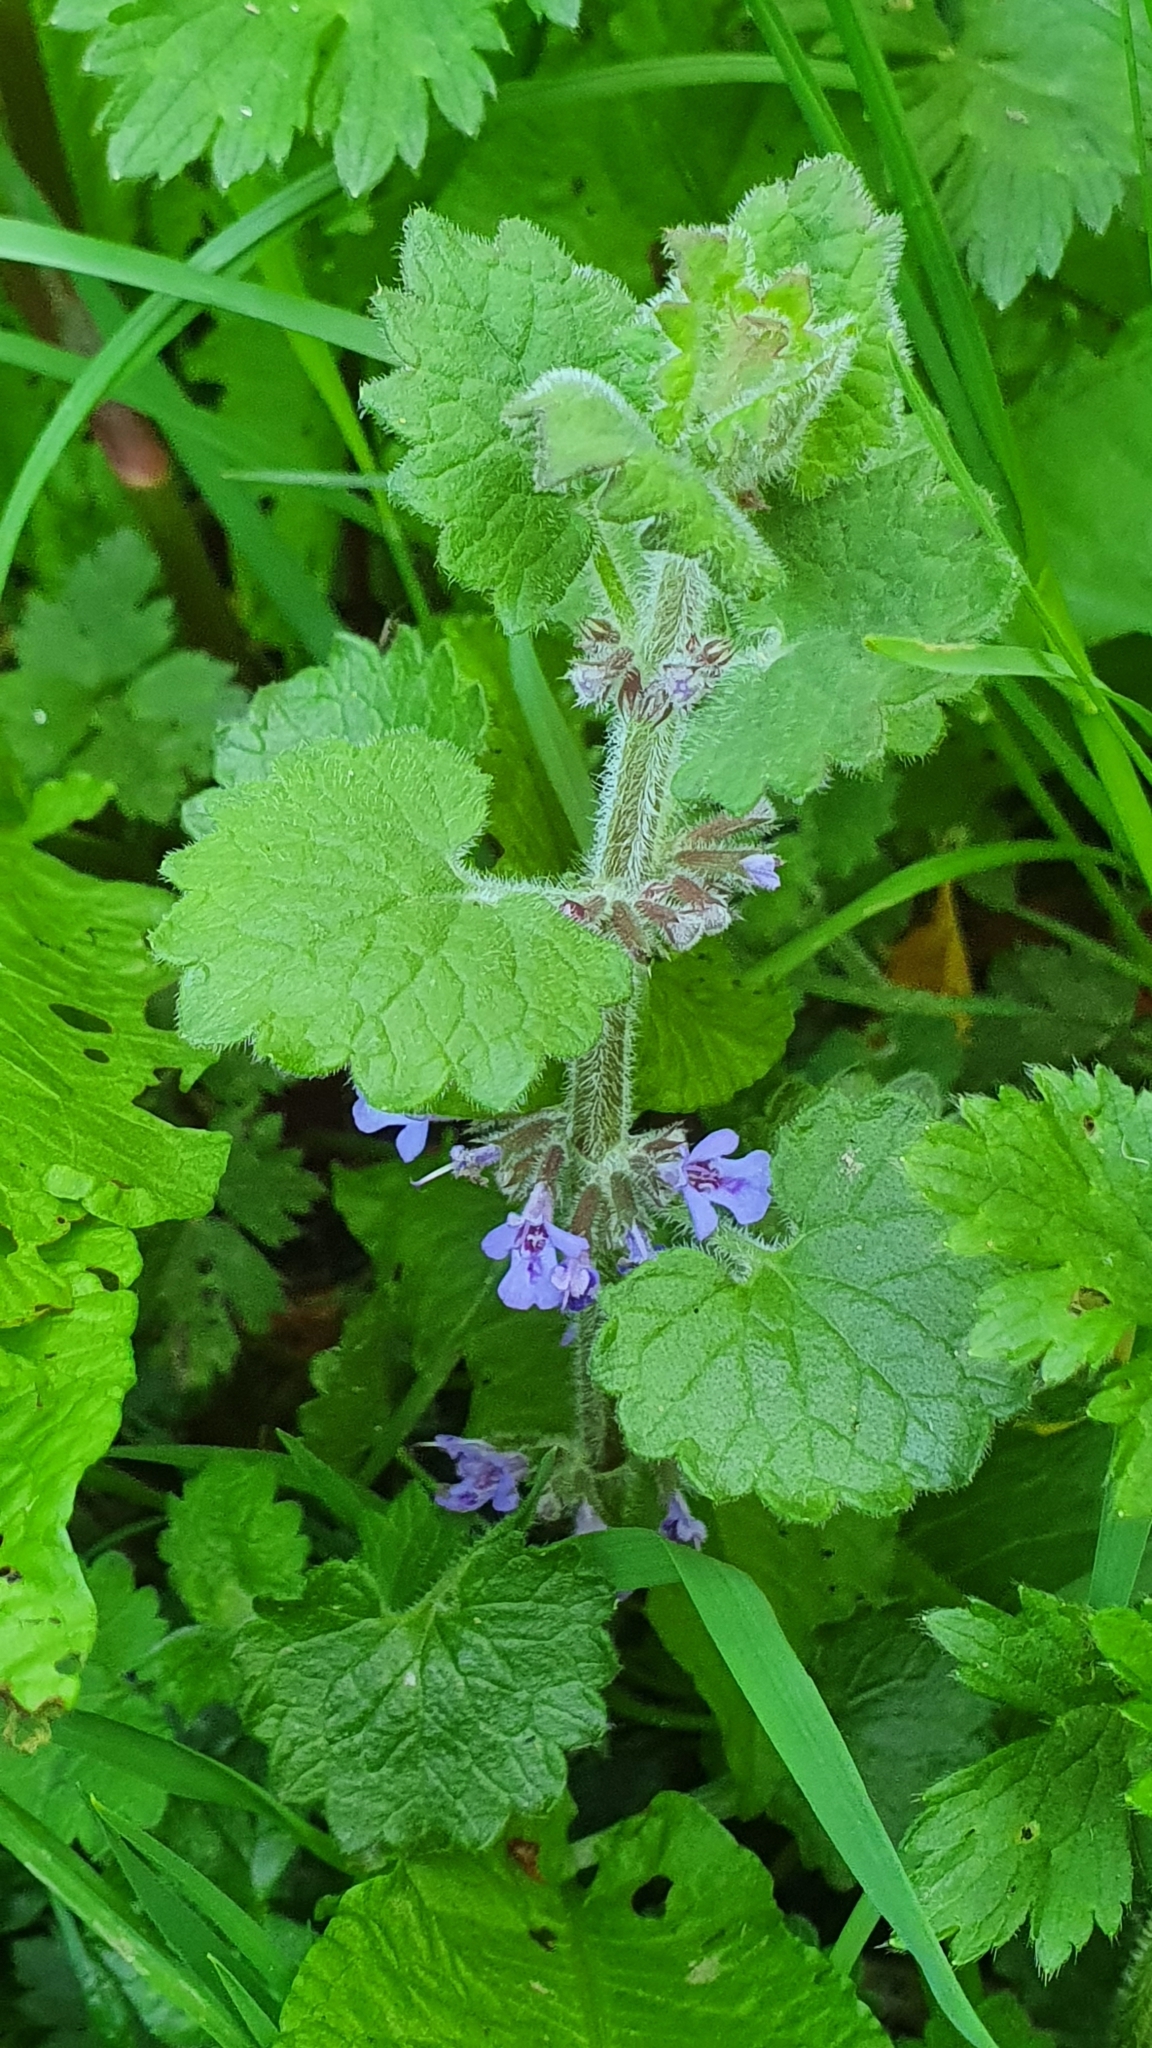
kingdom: Plantae
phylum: Tracheophyta
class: Magnoliopsida
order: Lamiales
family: Lamiaceae
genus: Glechoma
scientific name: Glechoma hederacea
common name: Ground ivy
